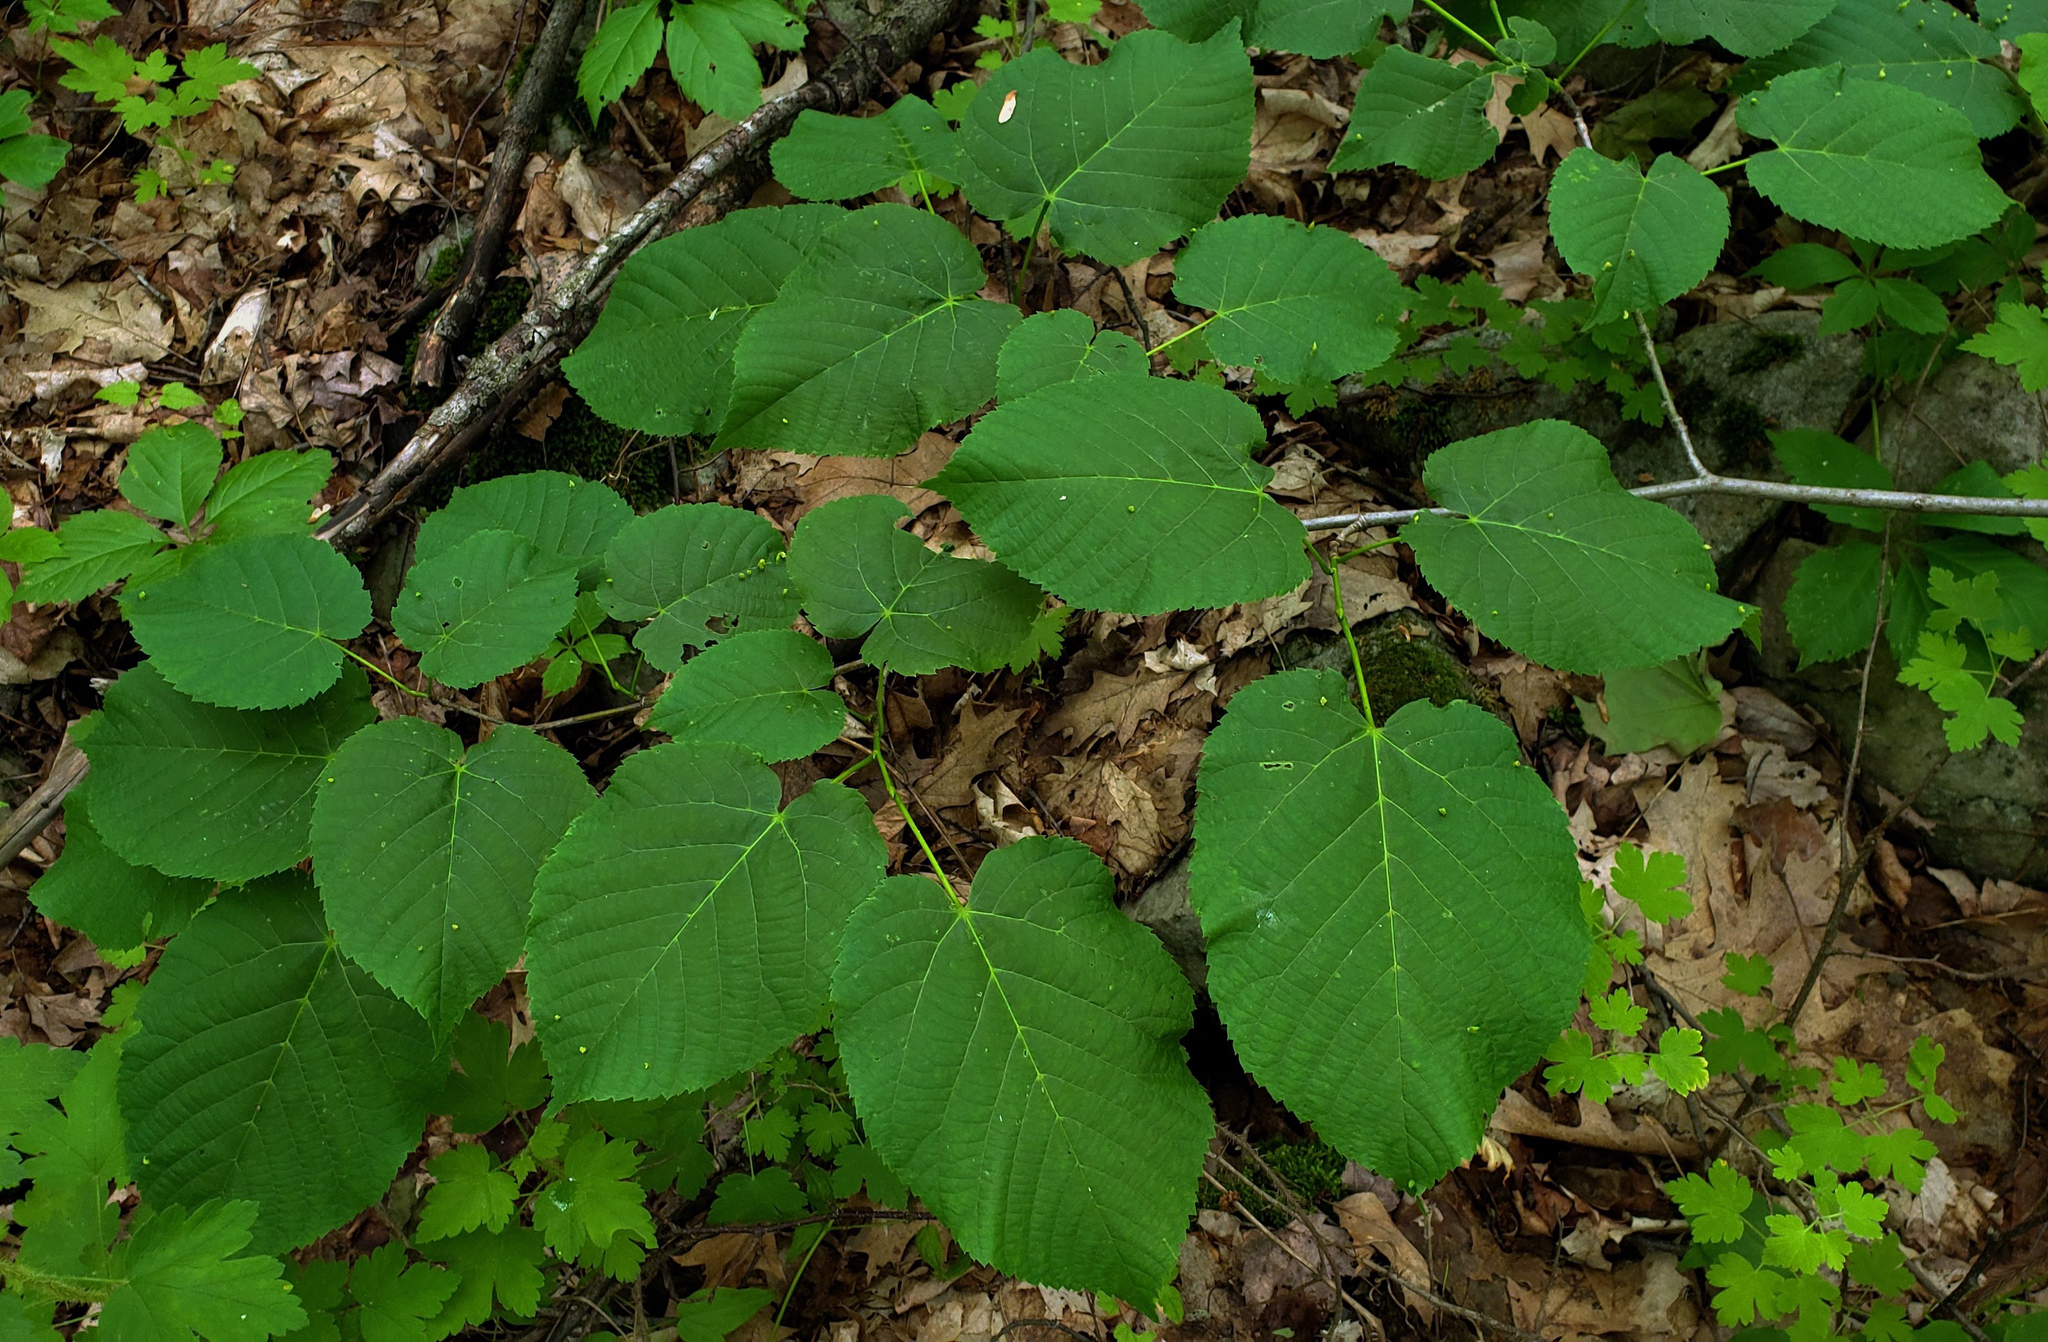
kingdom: Plantae
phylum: Tracheophyta
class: Magnoliopsida
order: Malvales
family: Malvaceae
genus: Tilia
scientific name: Tilia americana
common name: Basswood
